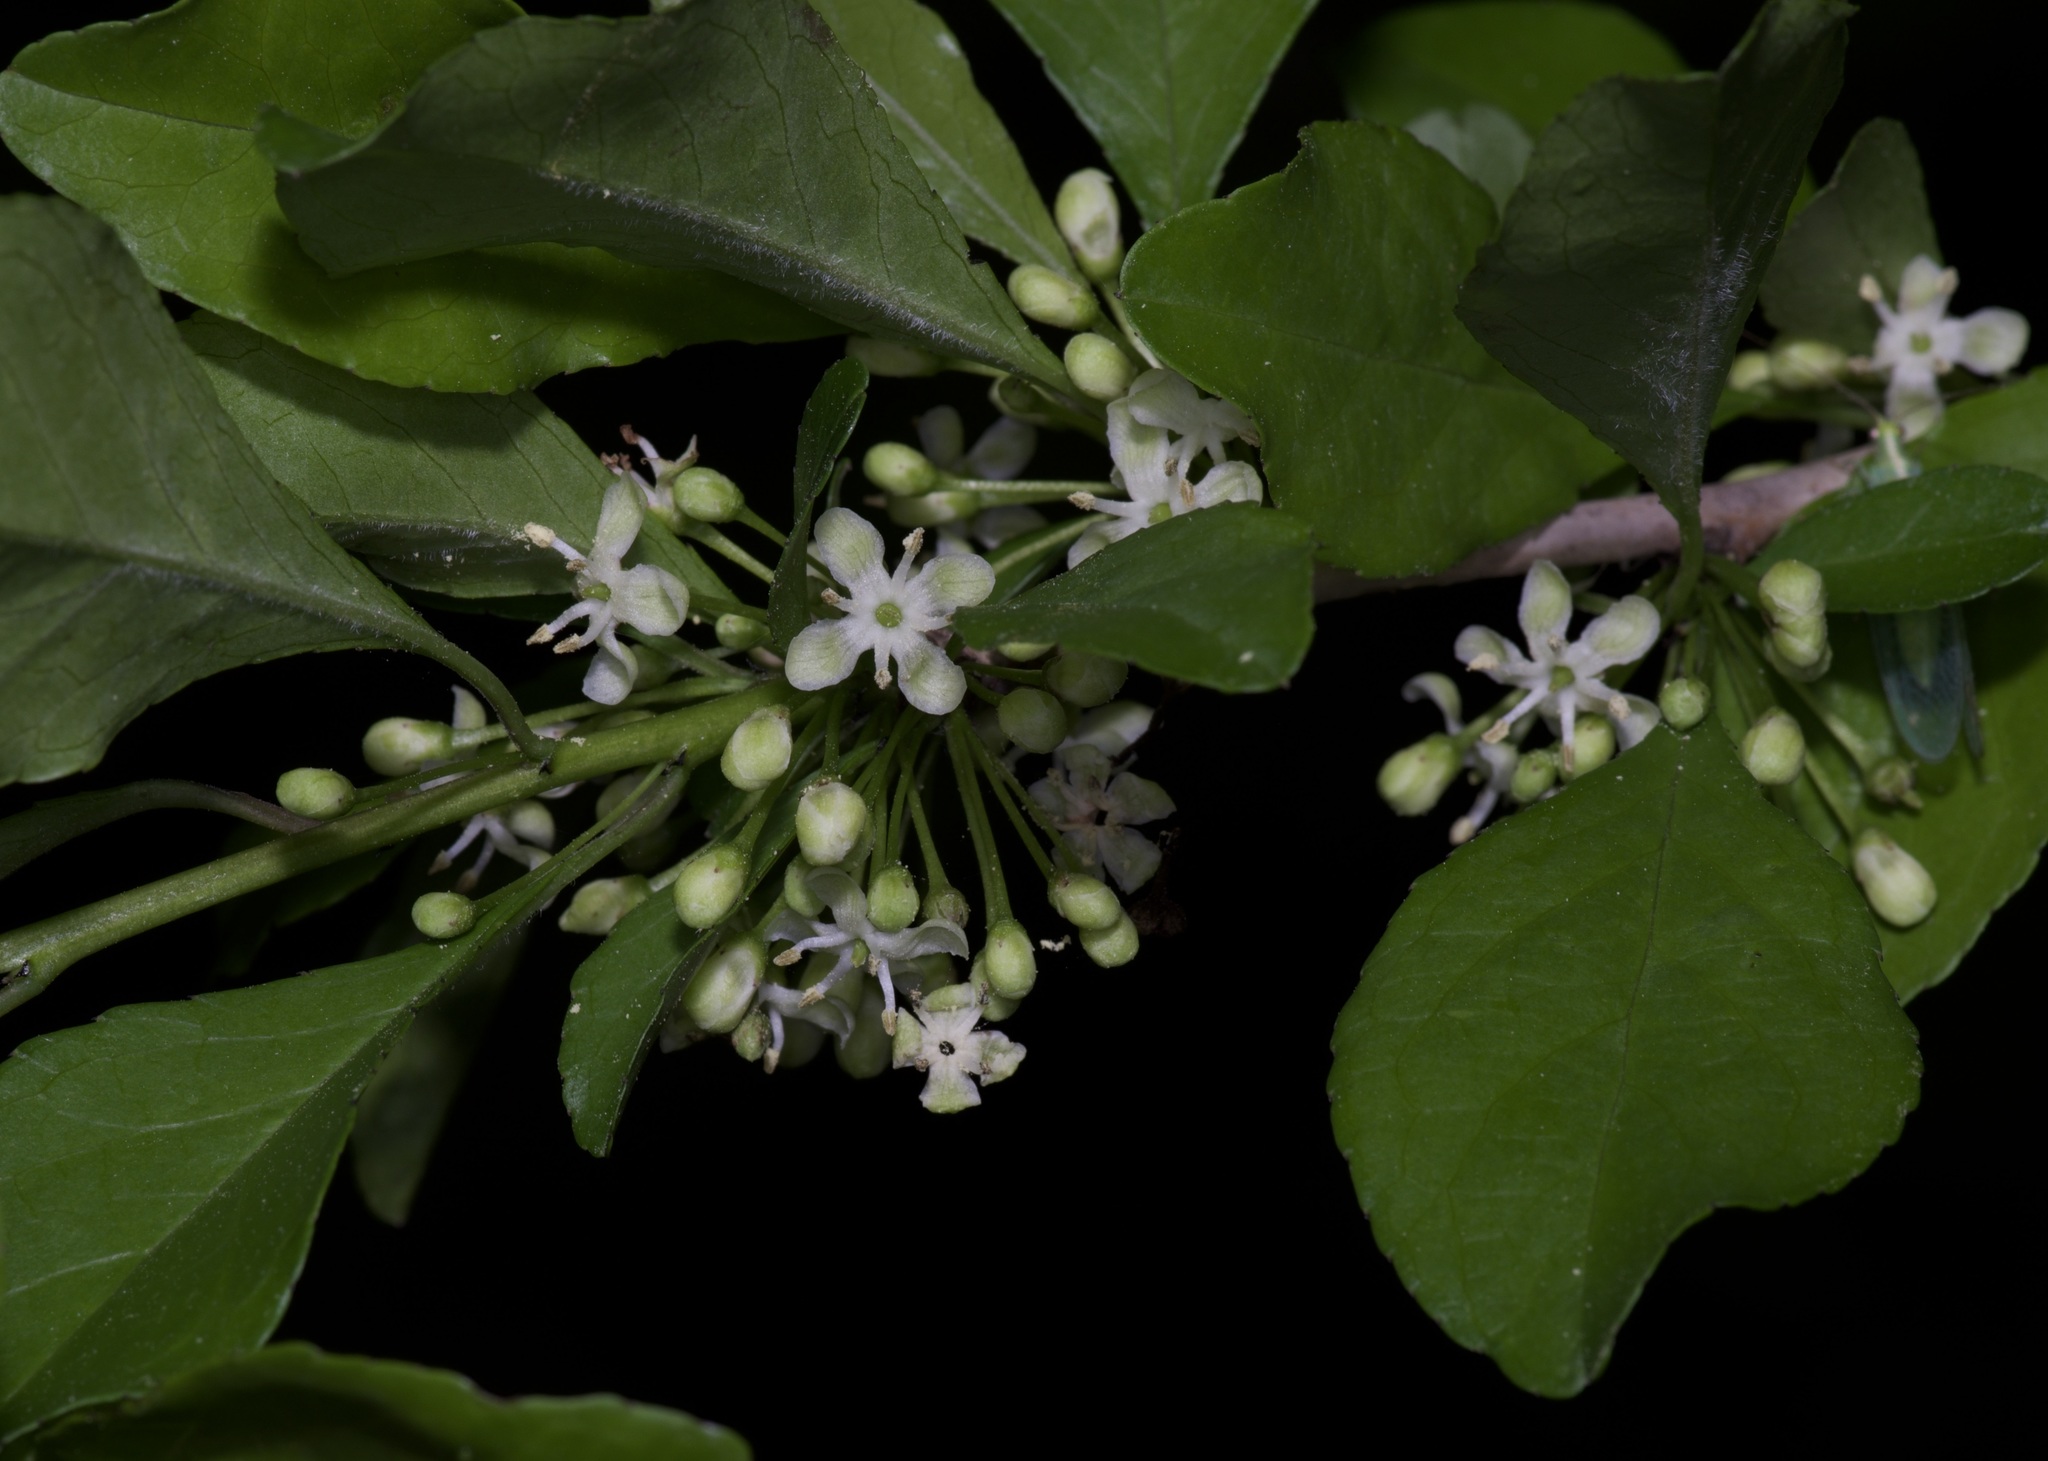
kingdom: Plantae
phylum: Tracheophyta
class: Magnoliopsida
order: Aquifoliales
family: Aquifoliaceae
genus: Ilex
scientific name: Ilex decidua
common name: Possum-haw
